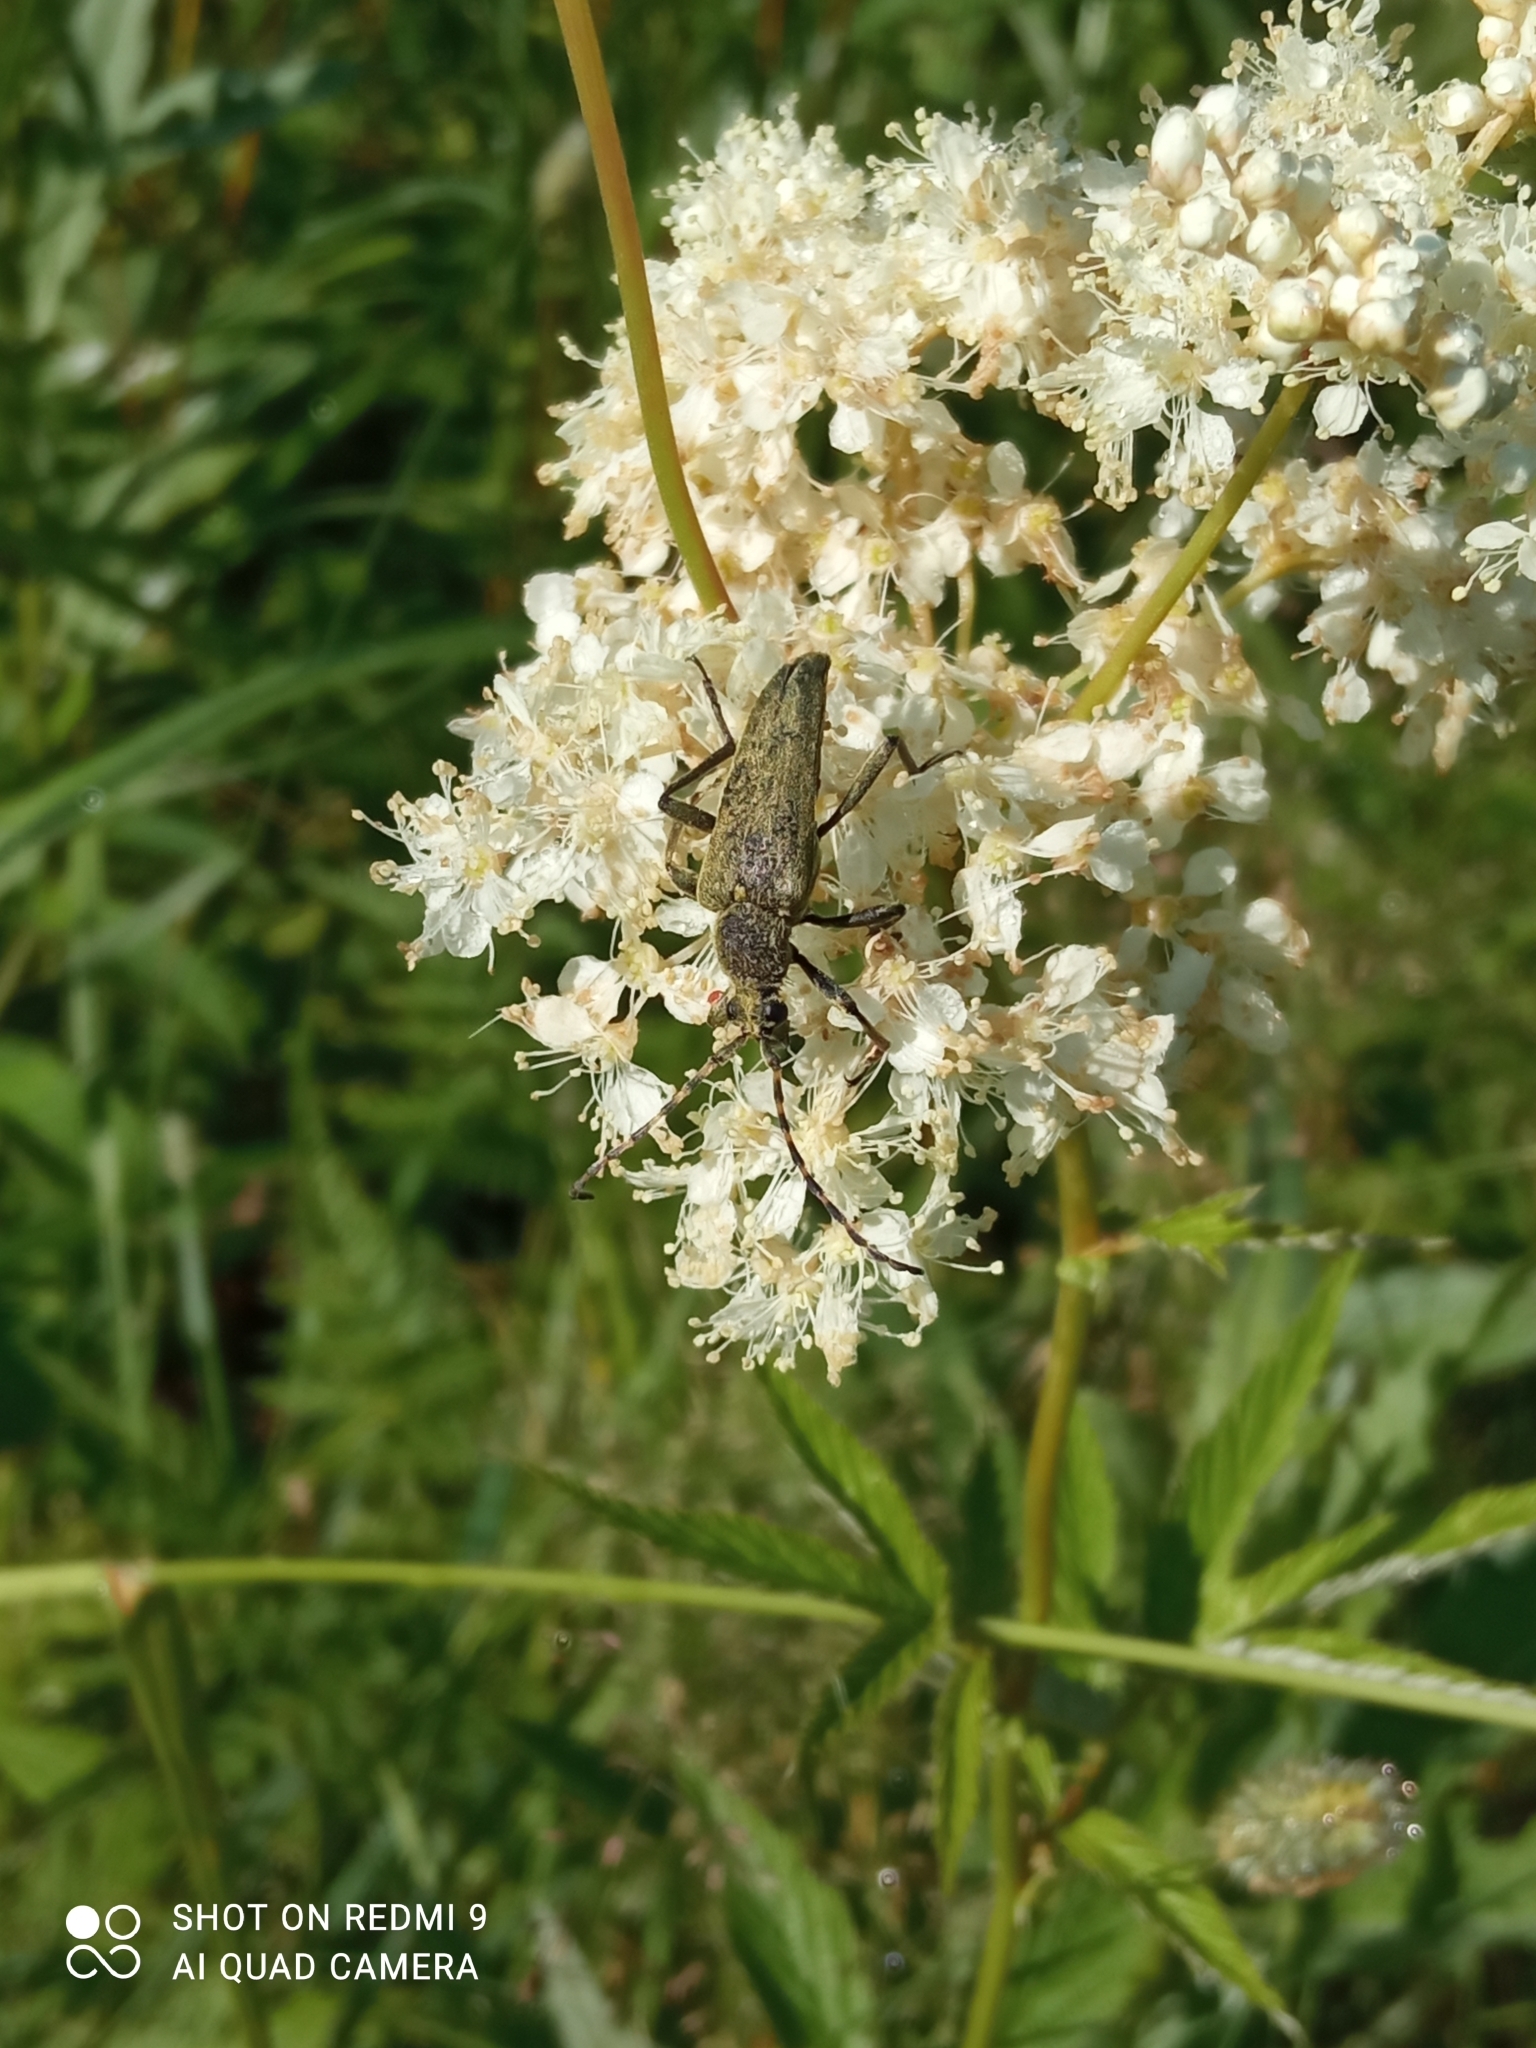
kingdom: Animalia
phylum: Arthropoda
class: Insecta
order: Coleoptera
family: Cerambycidae
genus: Lepturobosca
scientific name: Lepturobosca virens
